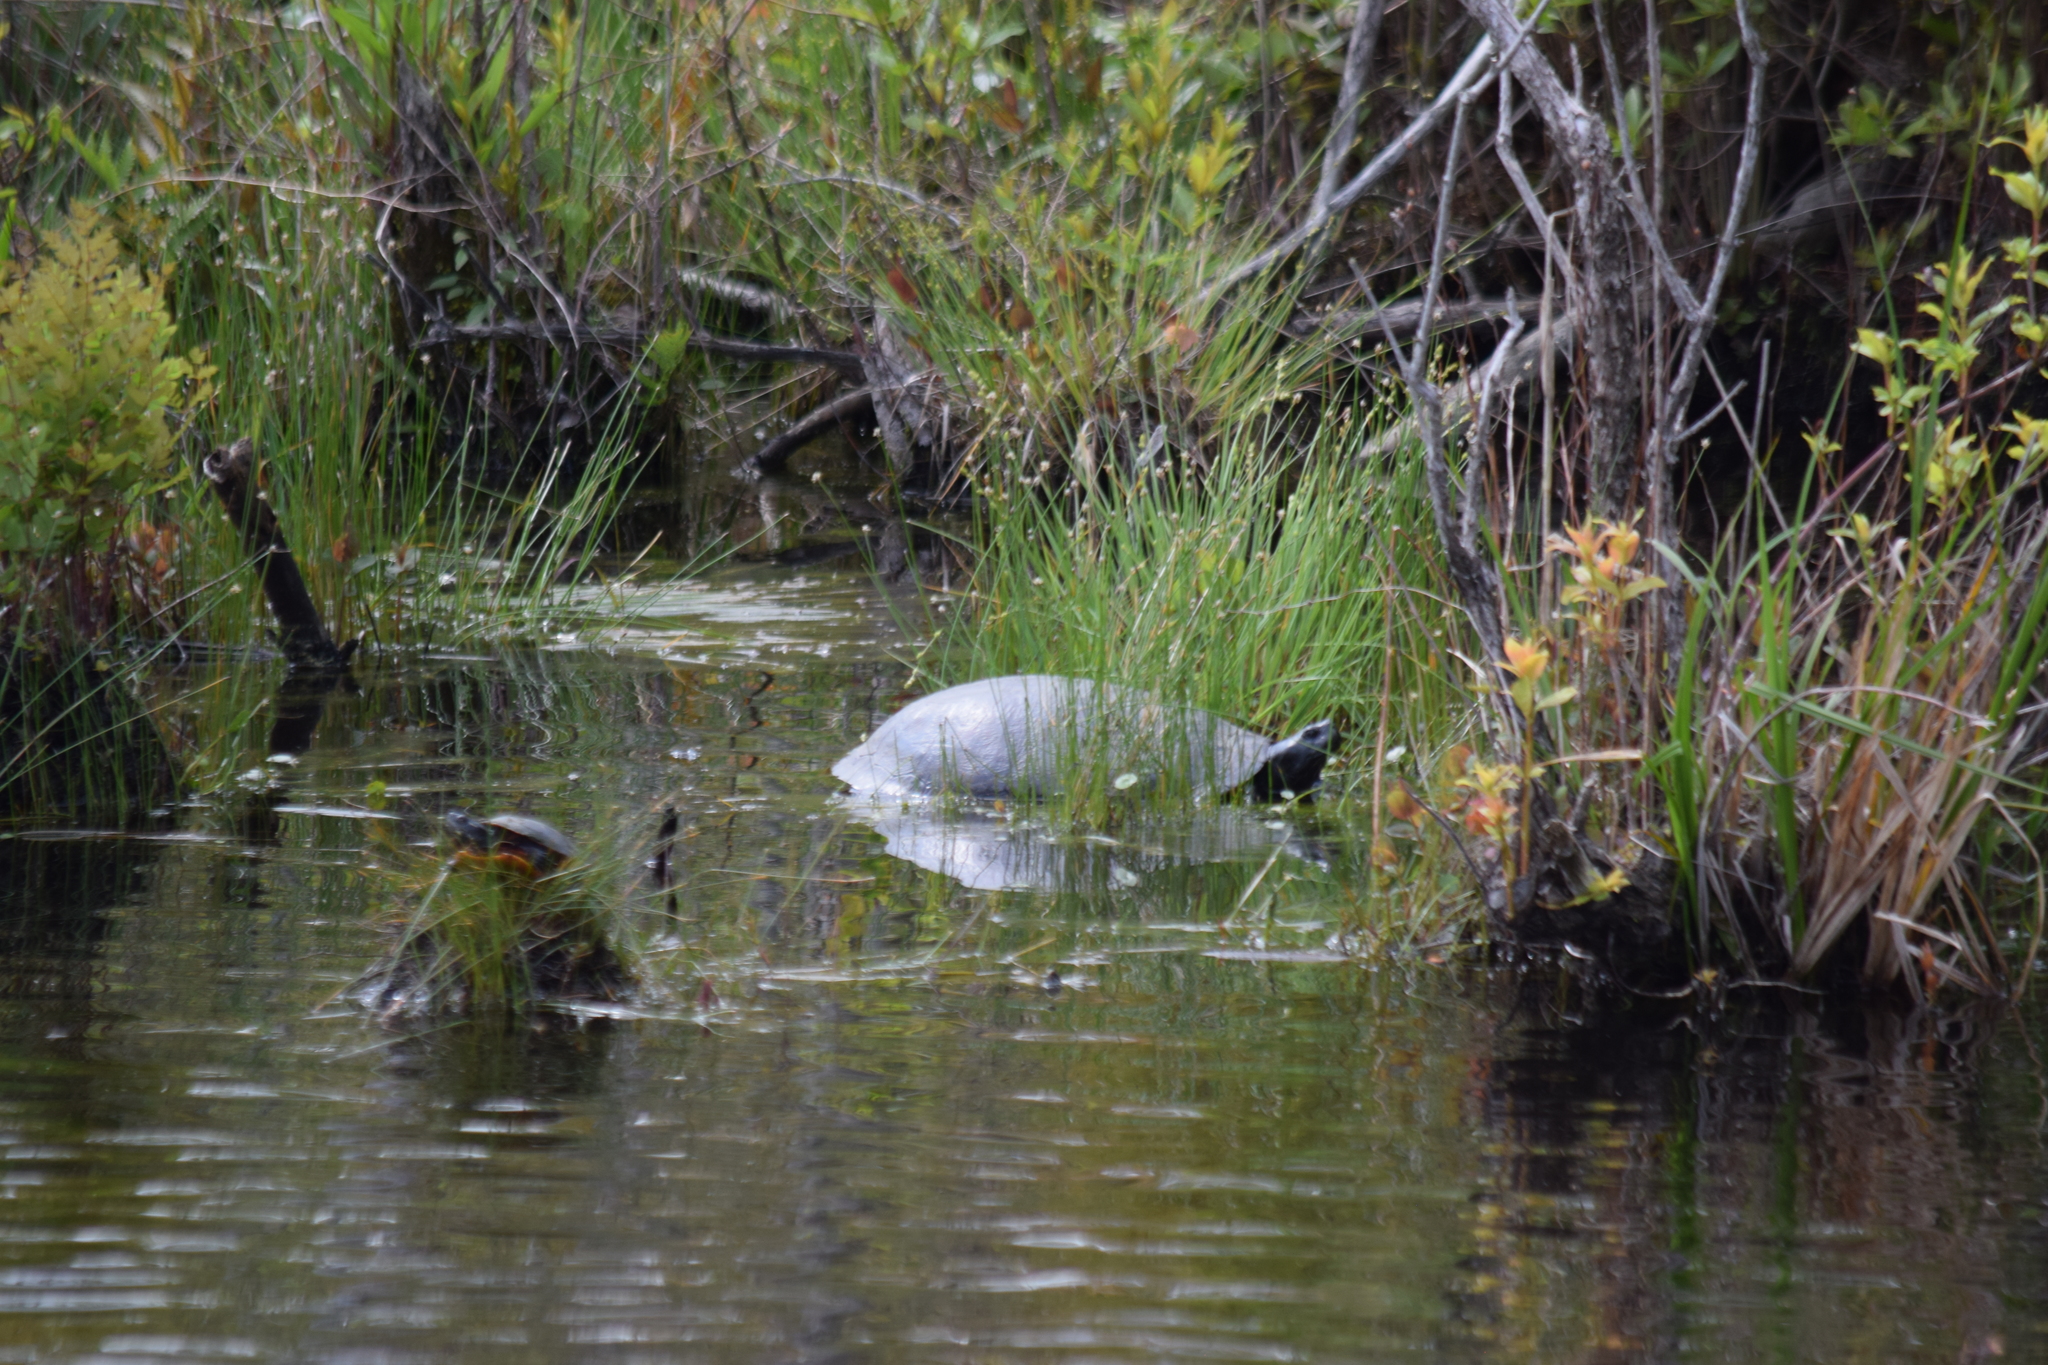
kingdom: Animalia
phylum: Chordata
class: Testudines
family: Emydidae
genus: Pseudemys
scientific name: Pseudemys rubriventris
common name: American red-bellied turtle
